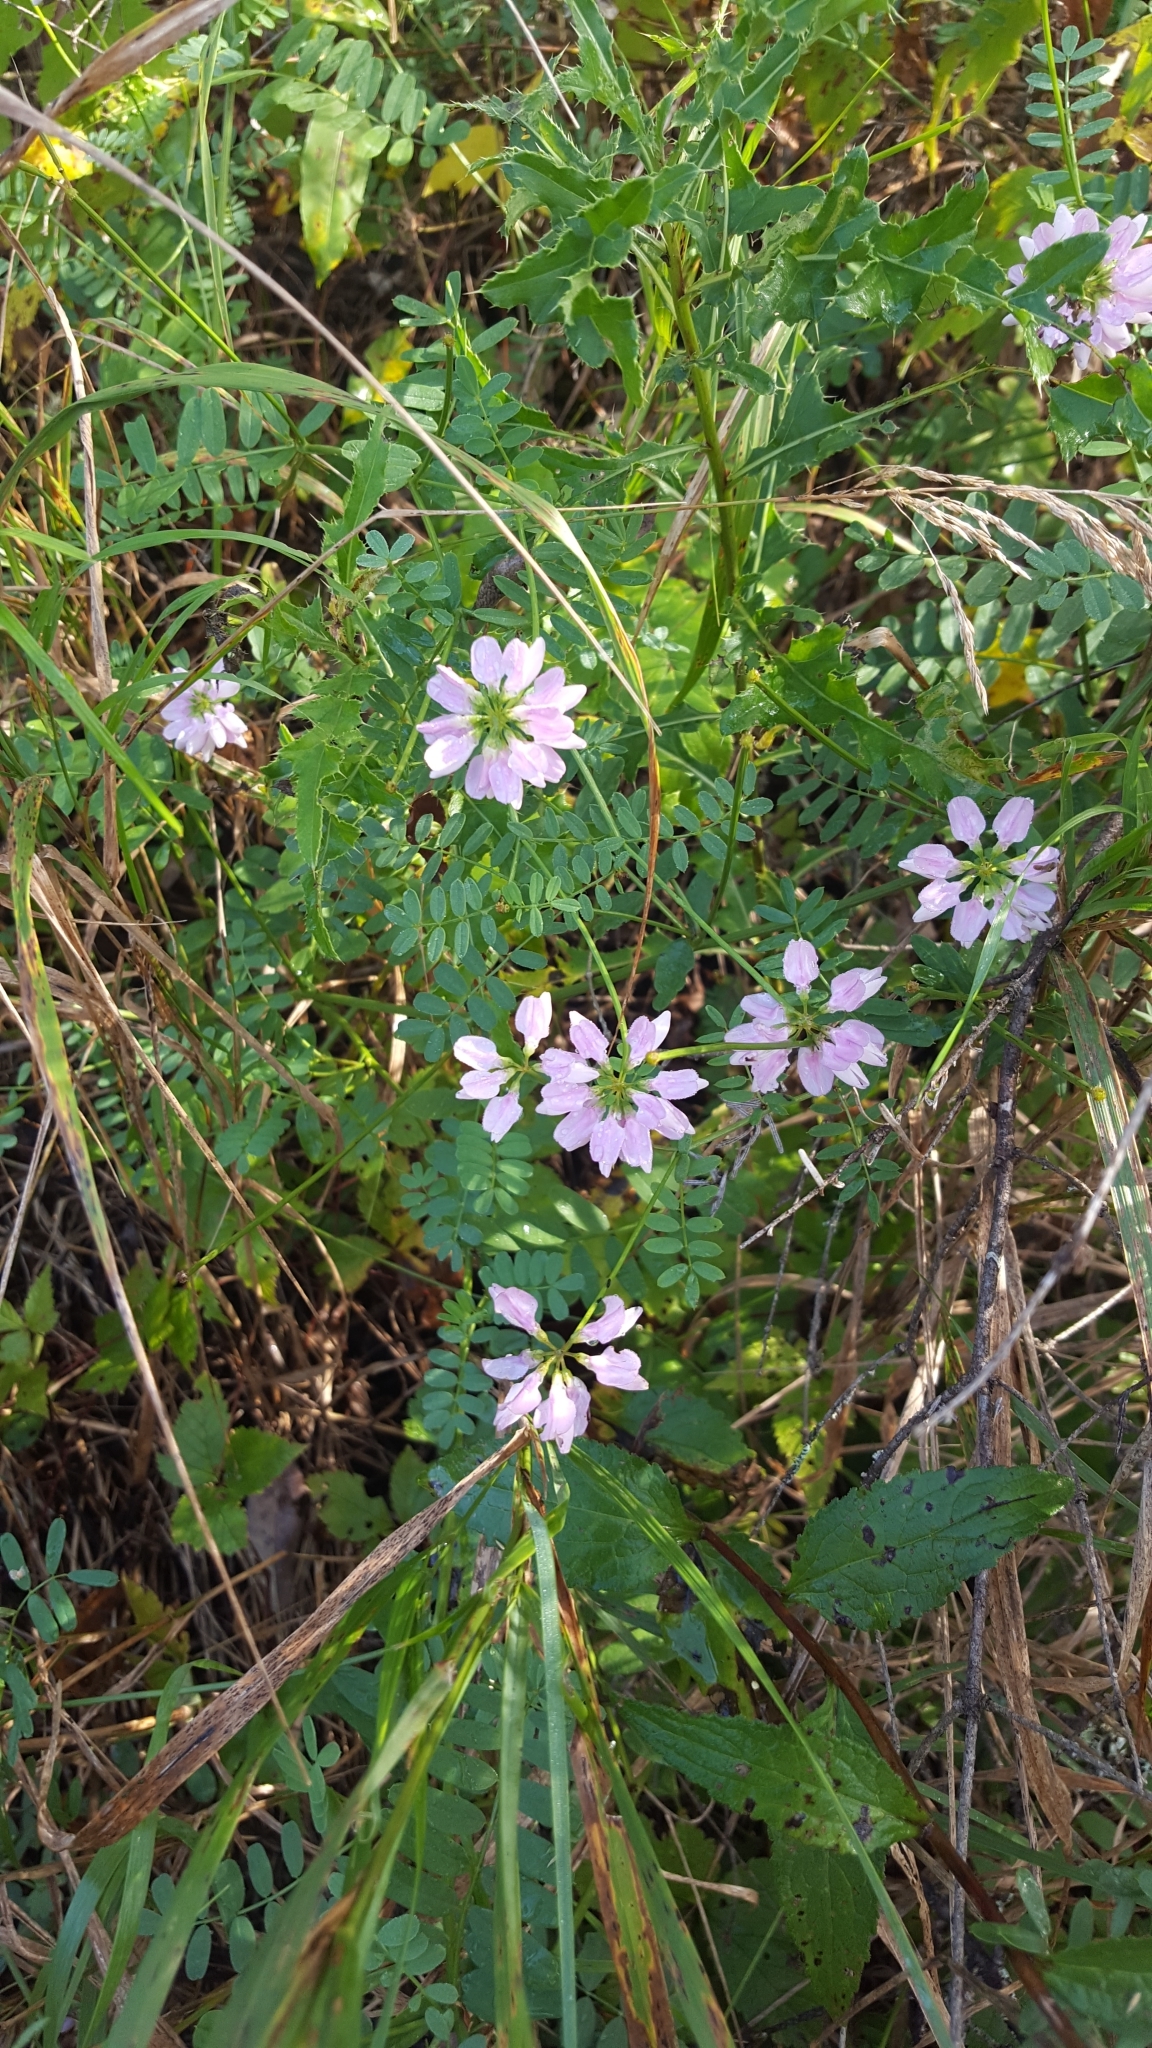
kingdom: Plantae
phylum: Tracheophyta
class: Magnoliopsida
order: Fabales
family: Fabaceae
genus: Coronilla
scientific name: Coronilla varia
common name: Crownvetch
